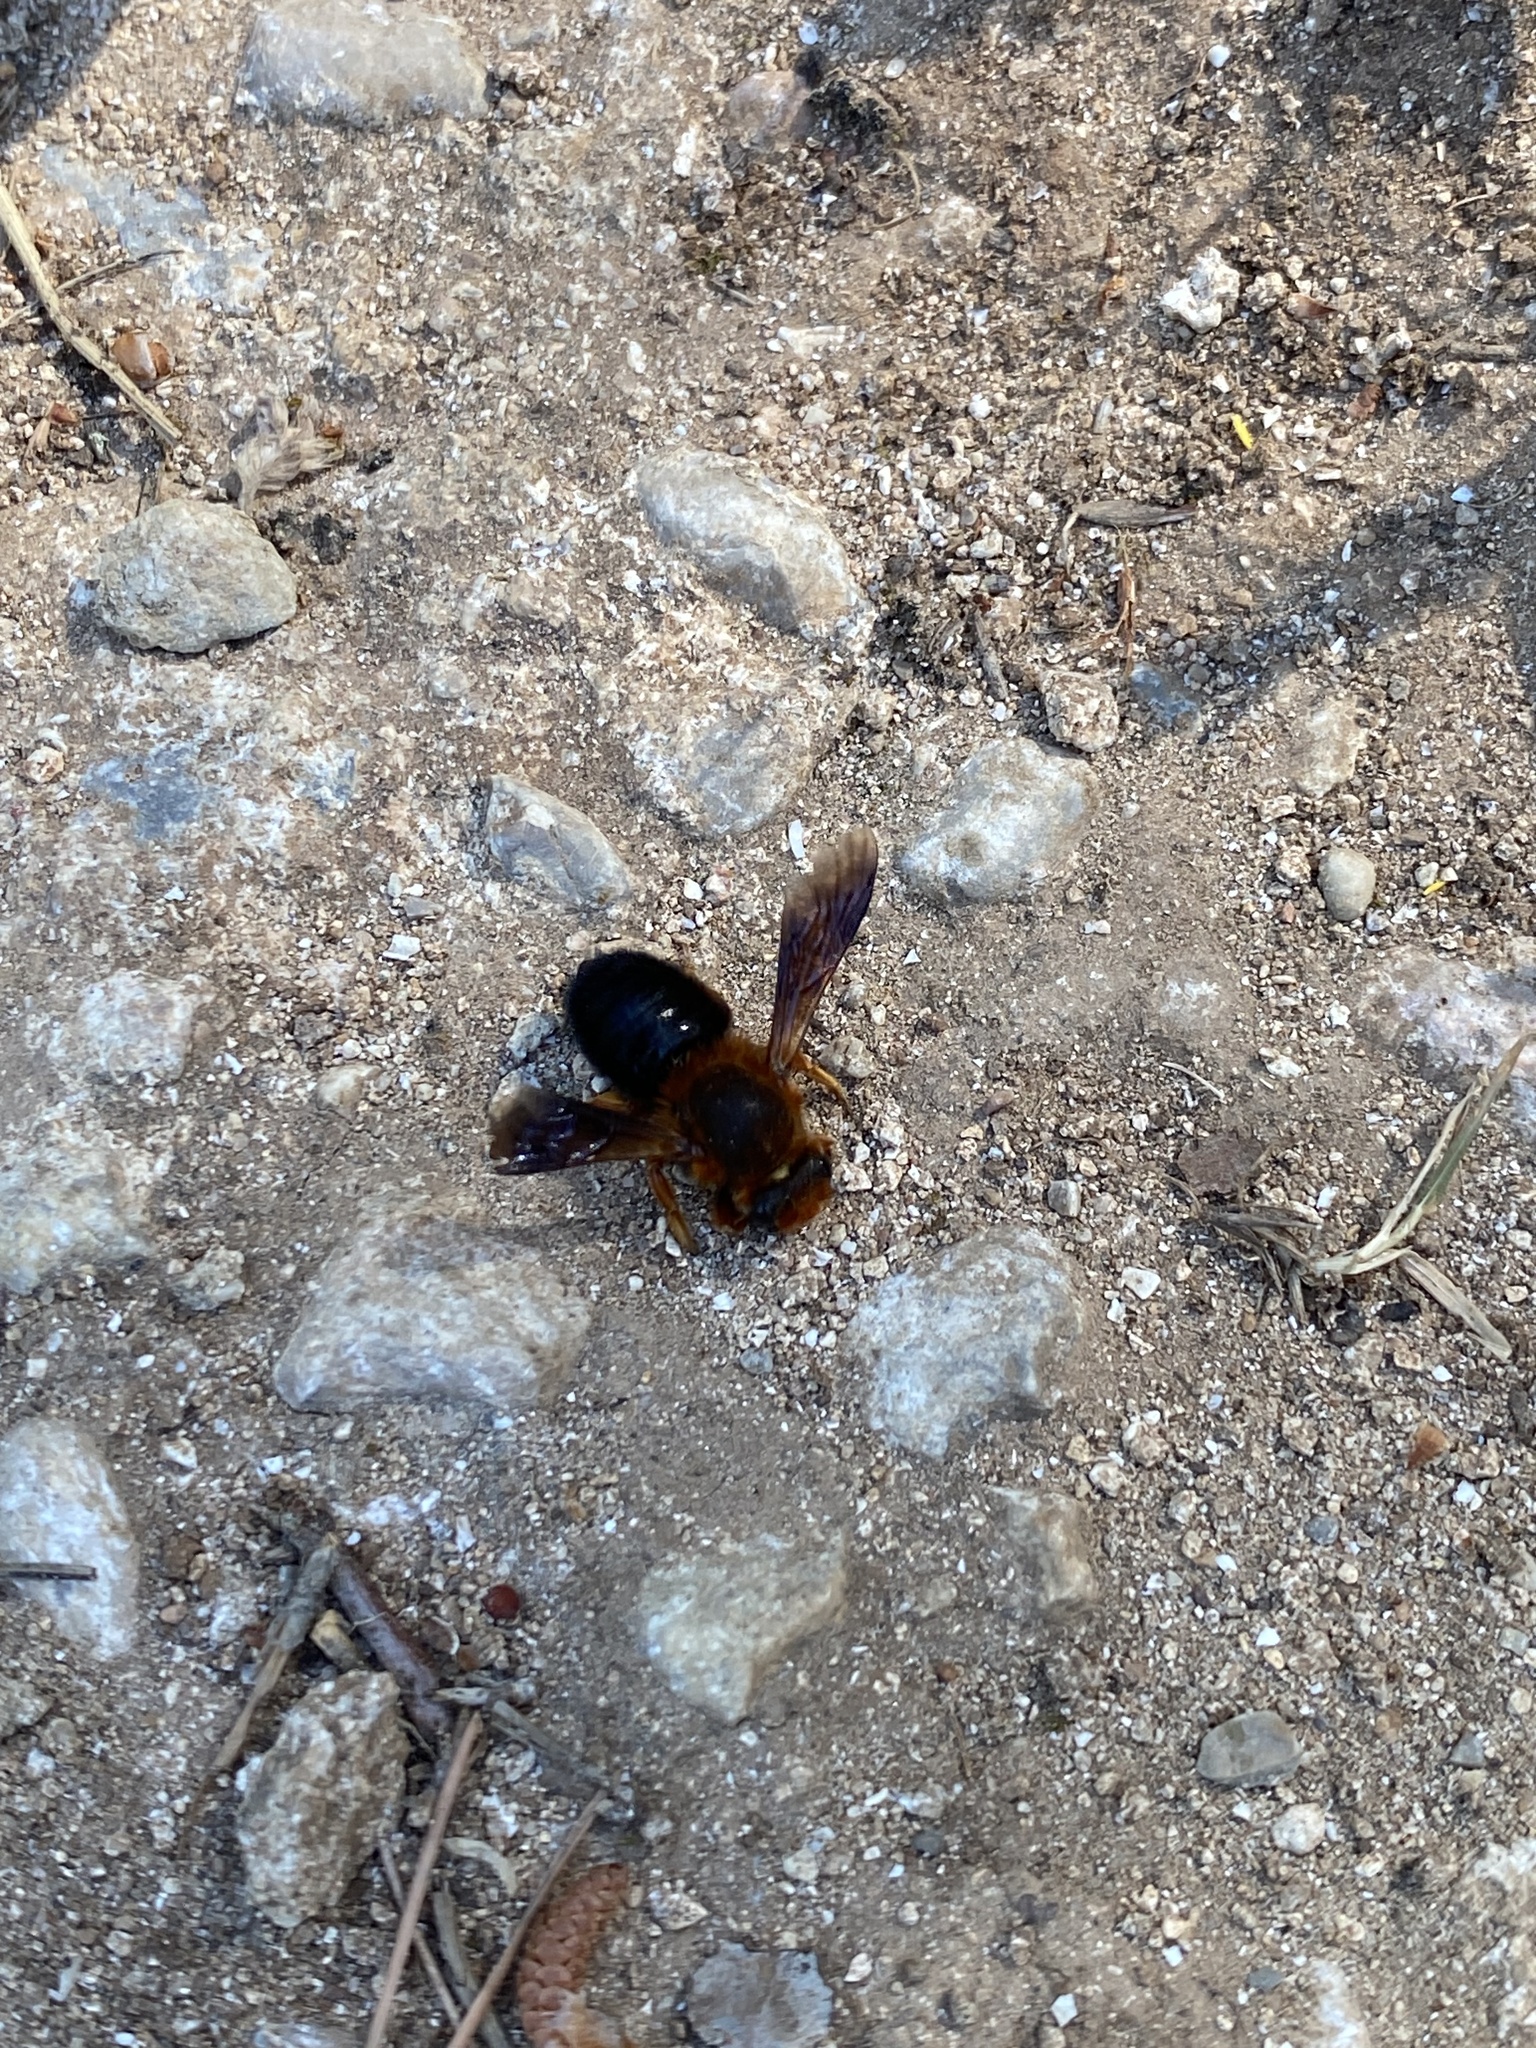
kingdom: Animalia
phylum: Arthropoda
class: Insecta
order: Hymenoptera
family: Megachilidae
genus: Megachile
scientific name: Megachile sicula
